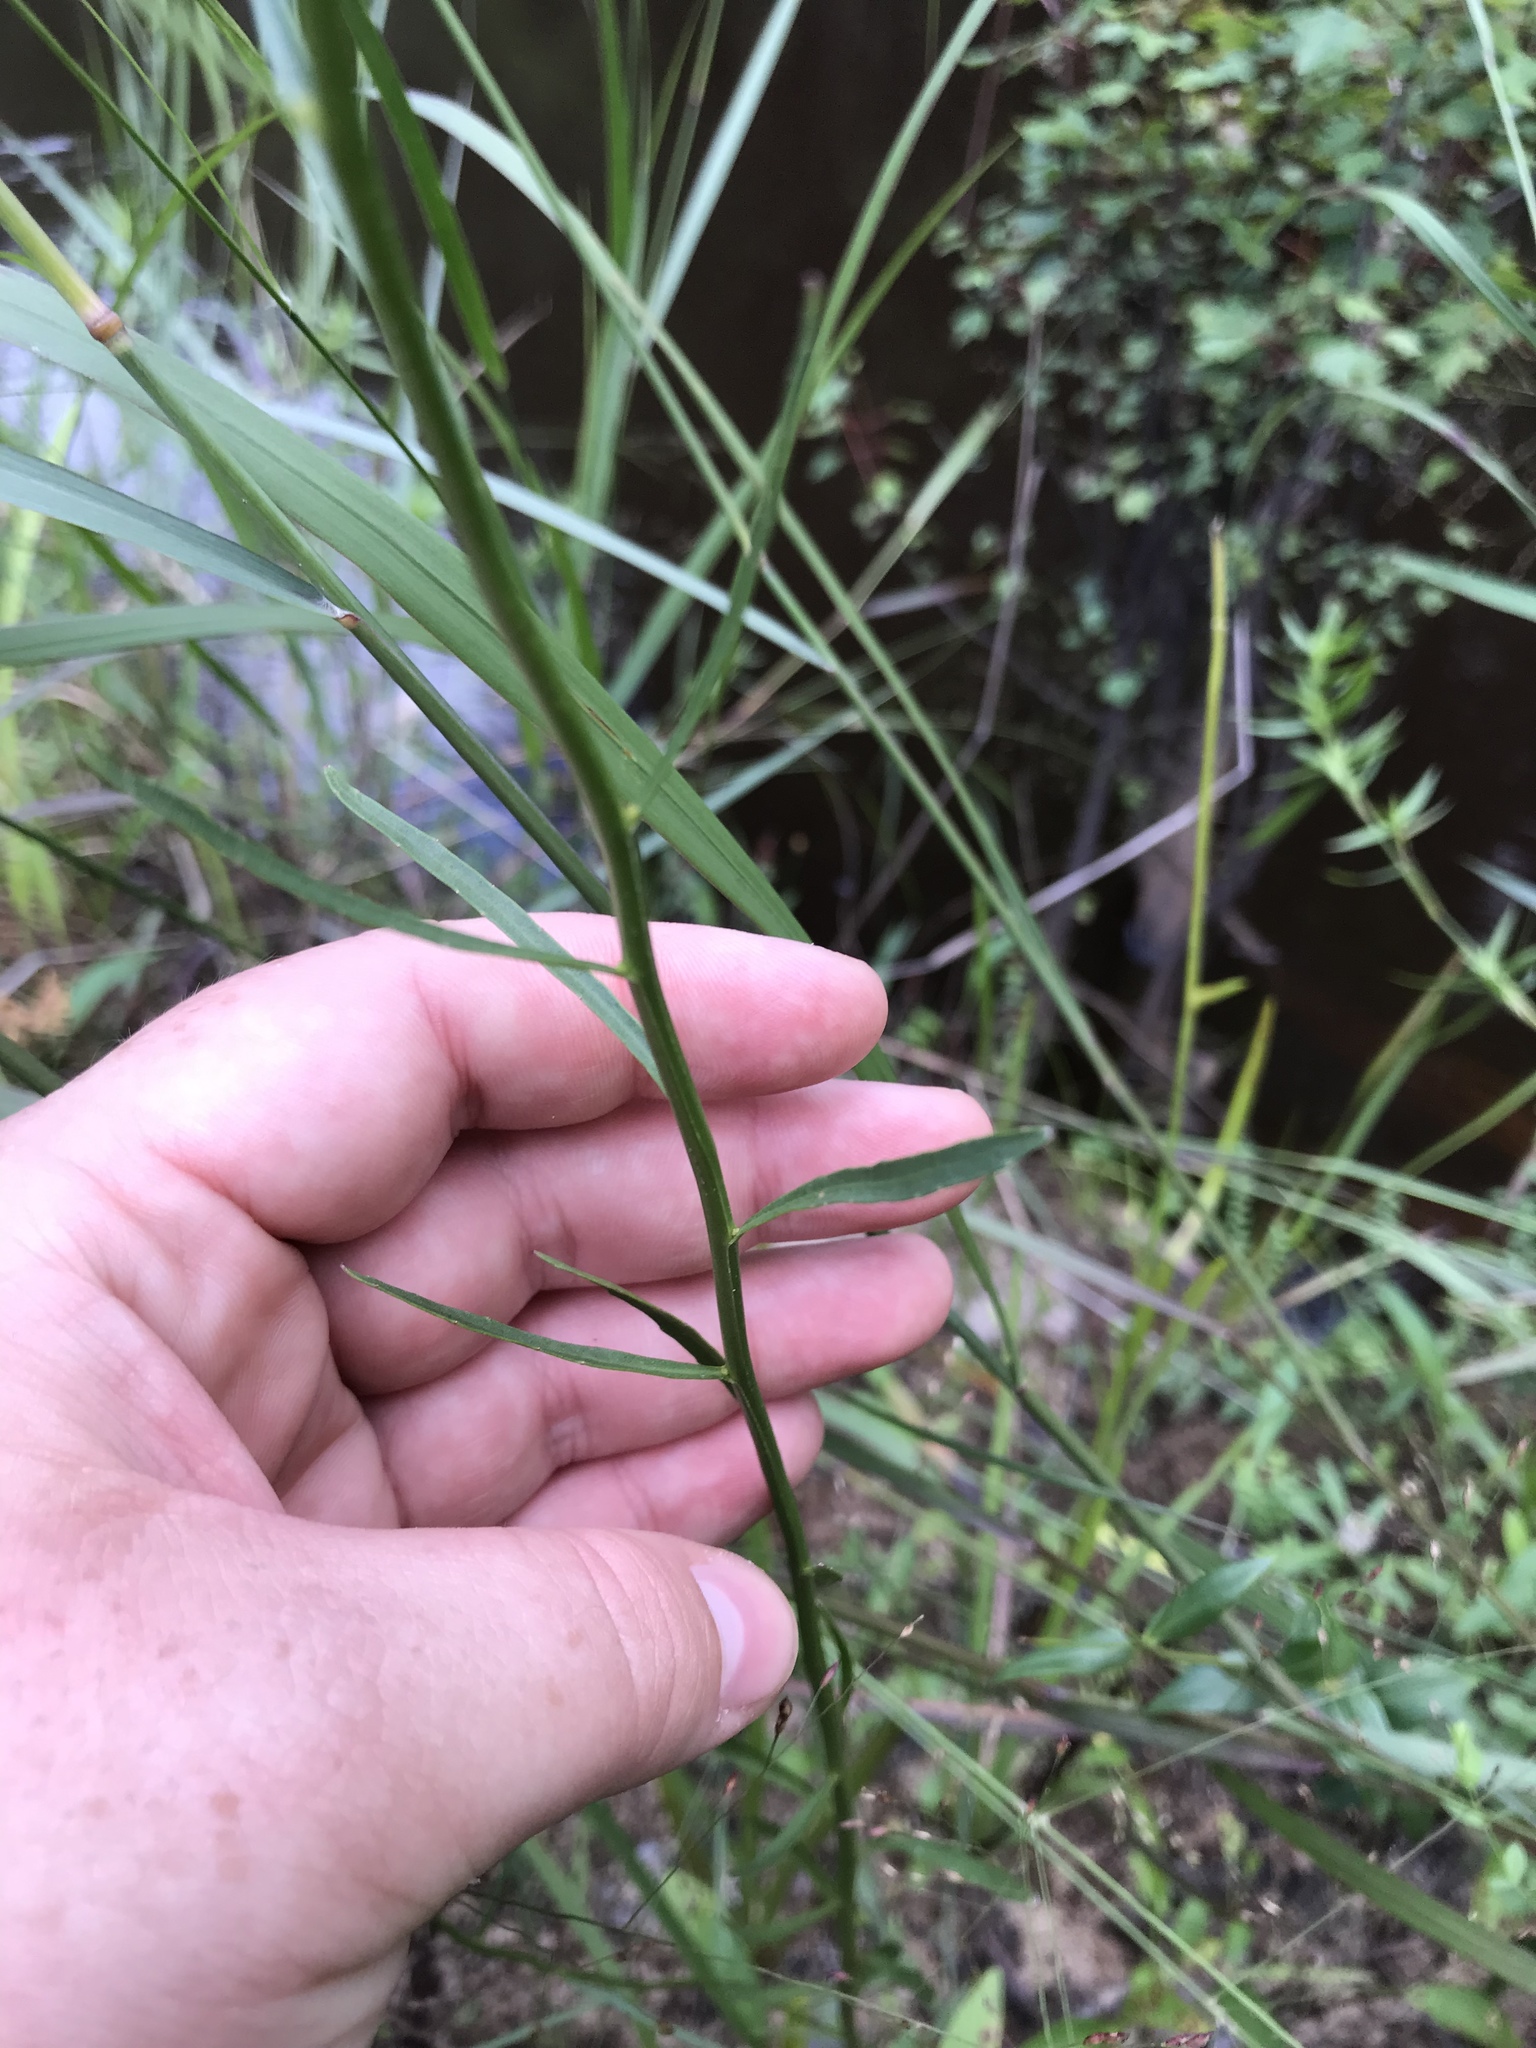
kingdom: Plantae
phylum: Tracheophyta
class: Magnoliopsida
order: Asterales
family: Campanulaceae
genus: Lobelia
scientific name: Lobelia canbyi
